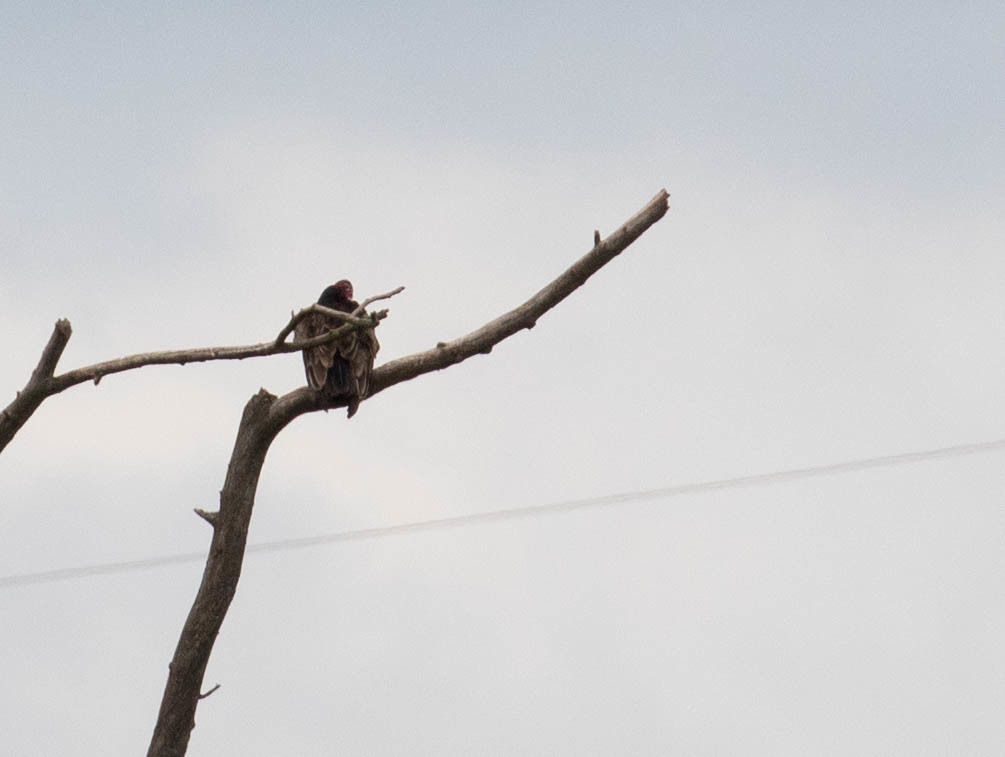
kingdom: Animalia
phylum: Chordata
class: Aves
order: Accipitriformes
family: Cathartidae
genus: Cathartes
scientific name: Cathartes aura
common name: Turkey vulture
